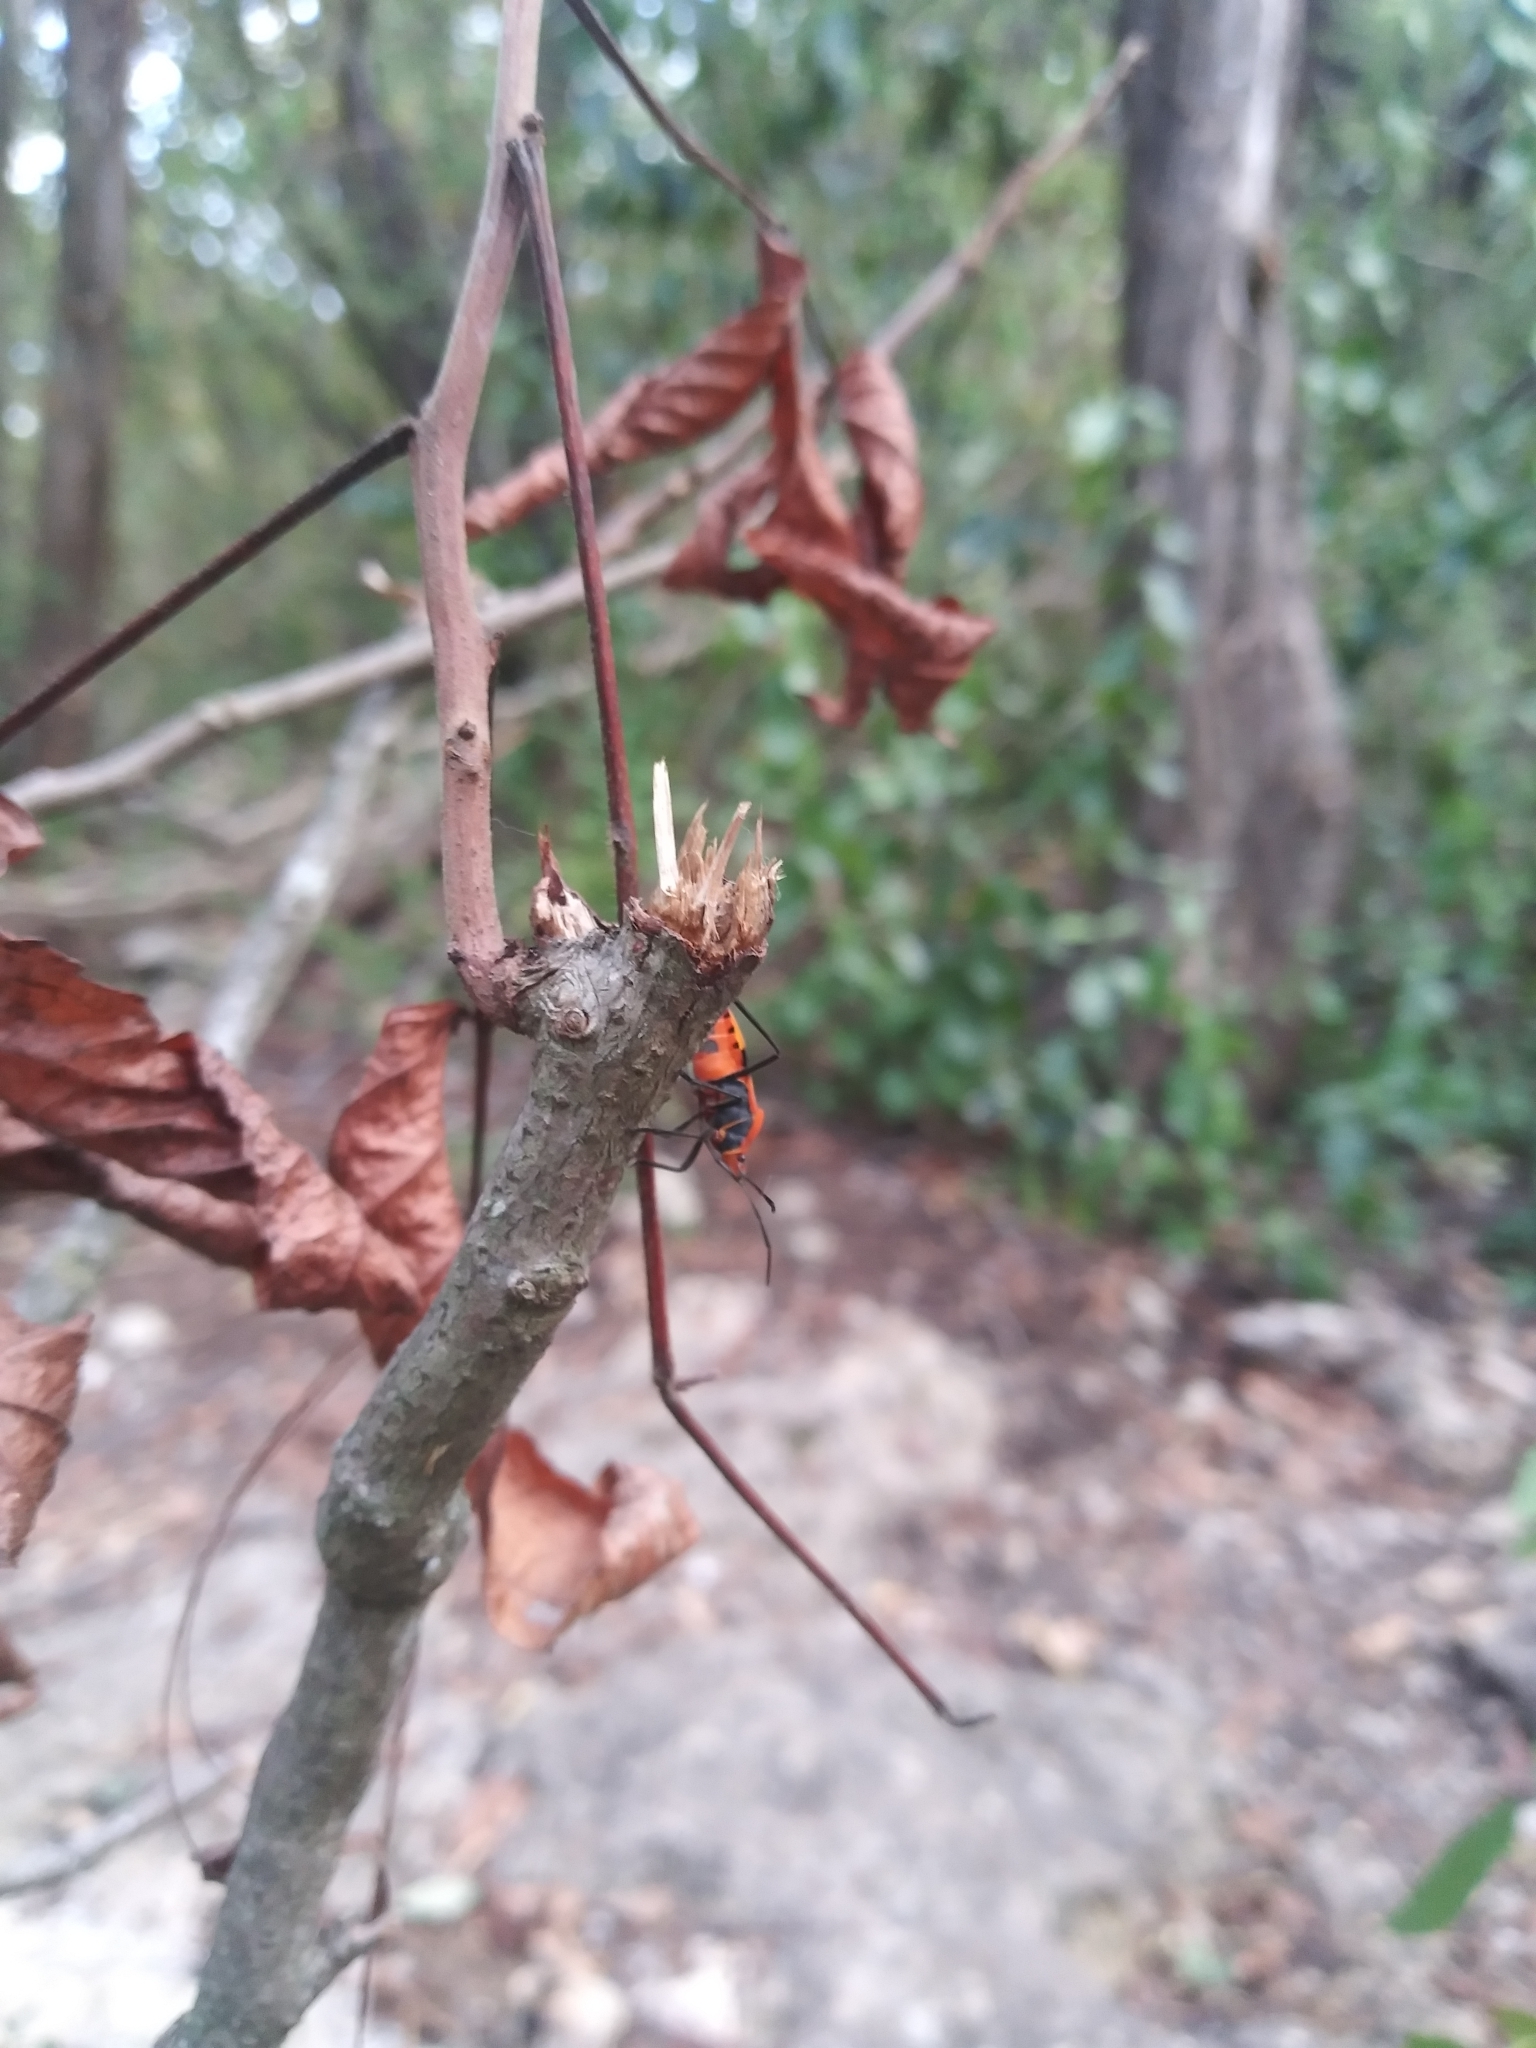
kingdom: Animalia
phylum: Arthropoda
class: Insecta
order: Hemiptera
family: Lygaeidae
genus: Oncopeltus
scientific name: Oncopeltus fasciatus
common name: Large milkweed bug
